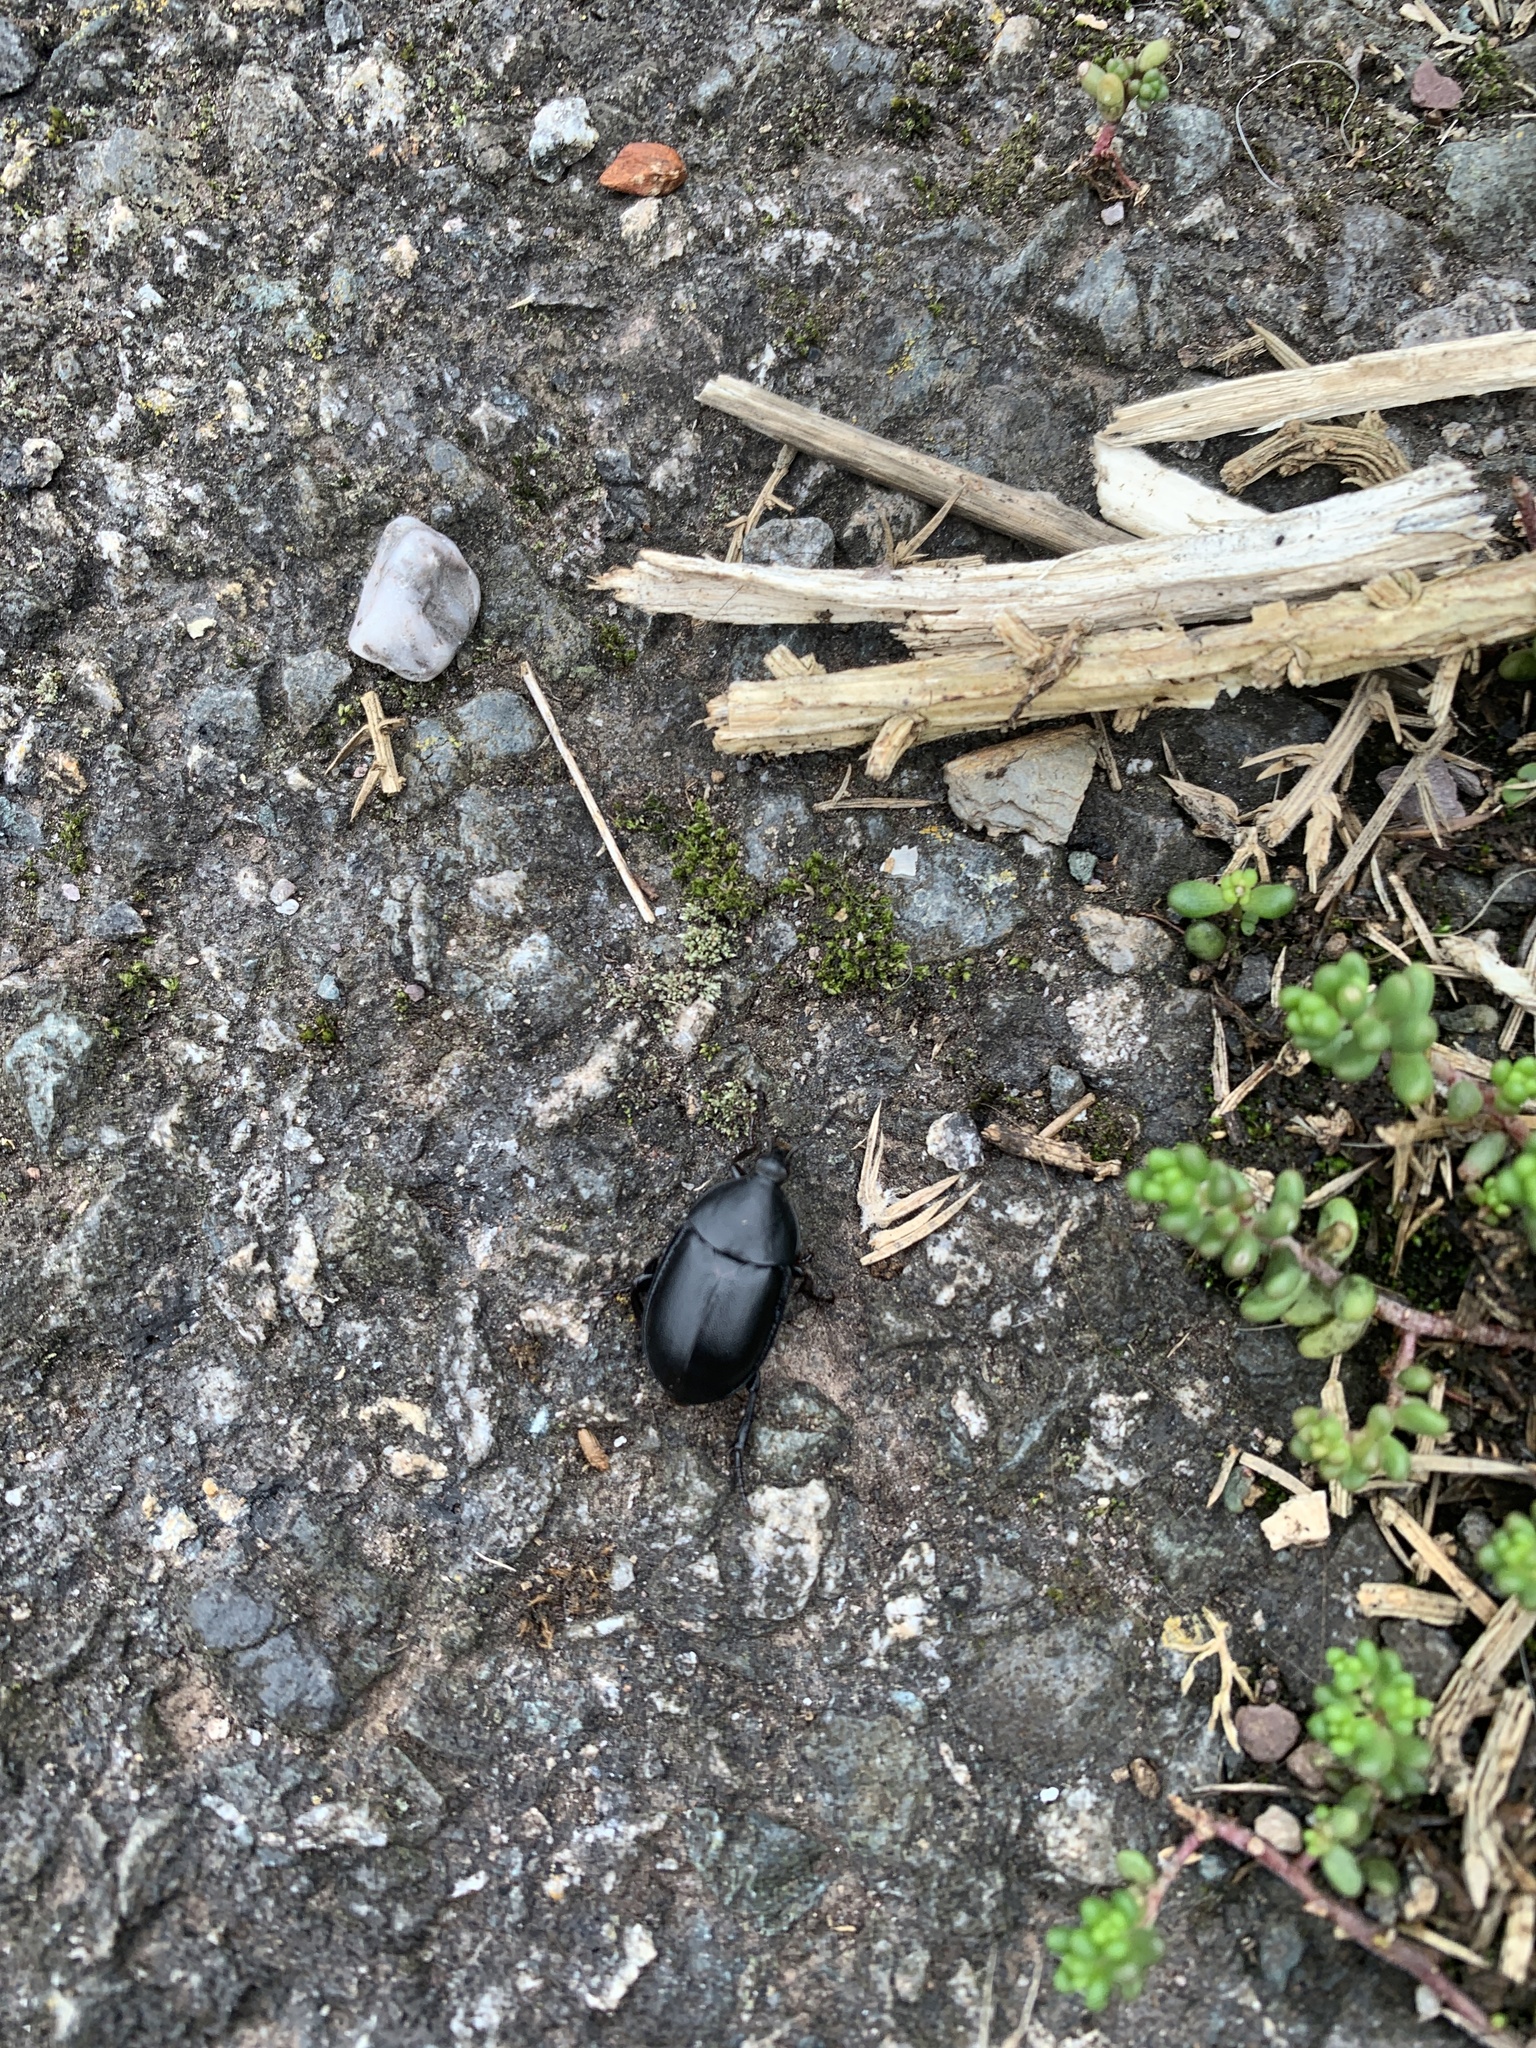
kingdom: Animalia
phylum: Arthropoda
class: Insecta
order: Coleoptera
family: Staphylinidae
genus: Silpha
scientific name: Silpha laevigata
